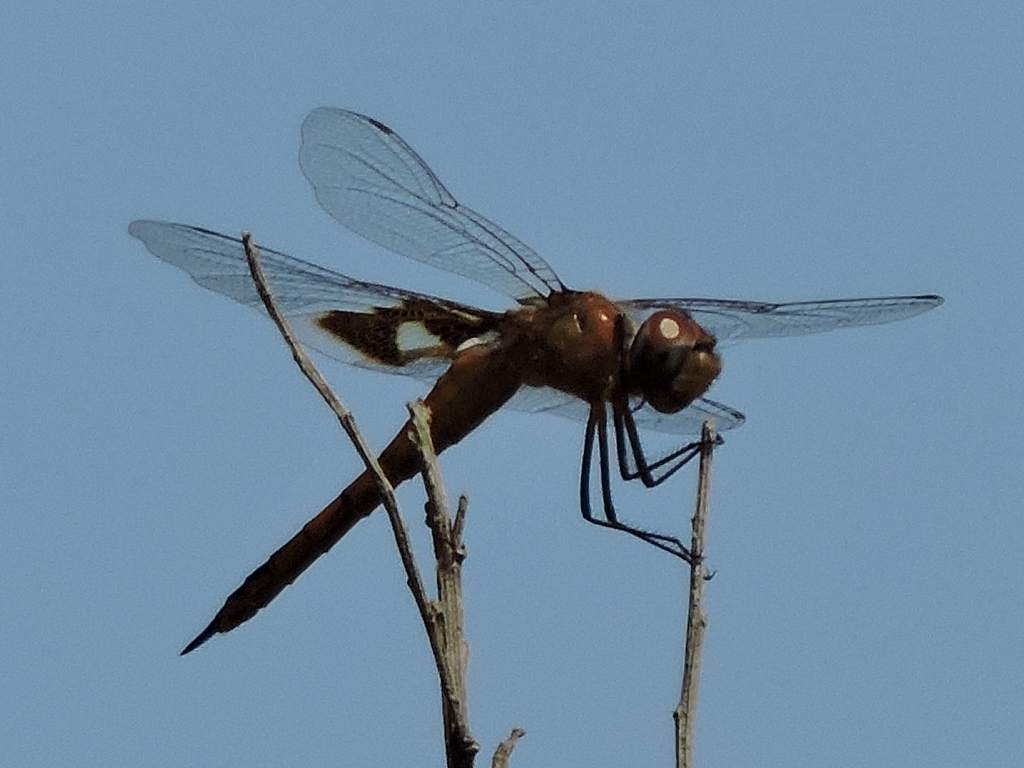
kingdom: Animalia
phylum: Arthropoda
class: Insecta
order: Odonata
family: Libellulidae
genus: Tramea
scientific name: Tramea onusta
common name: Red saddlebags
